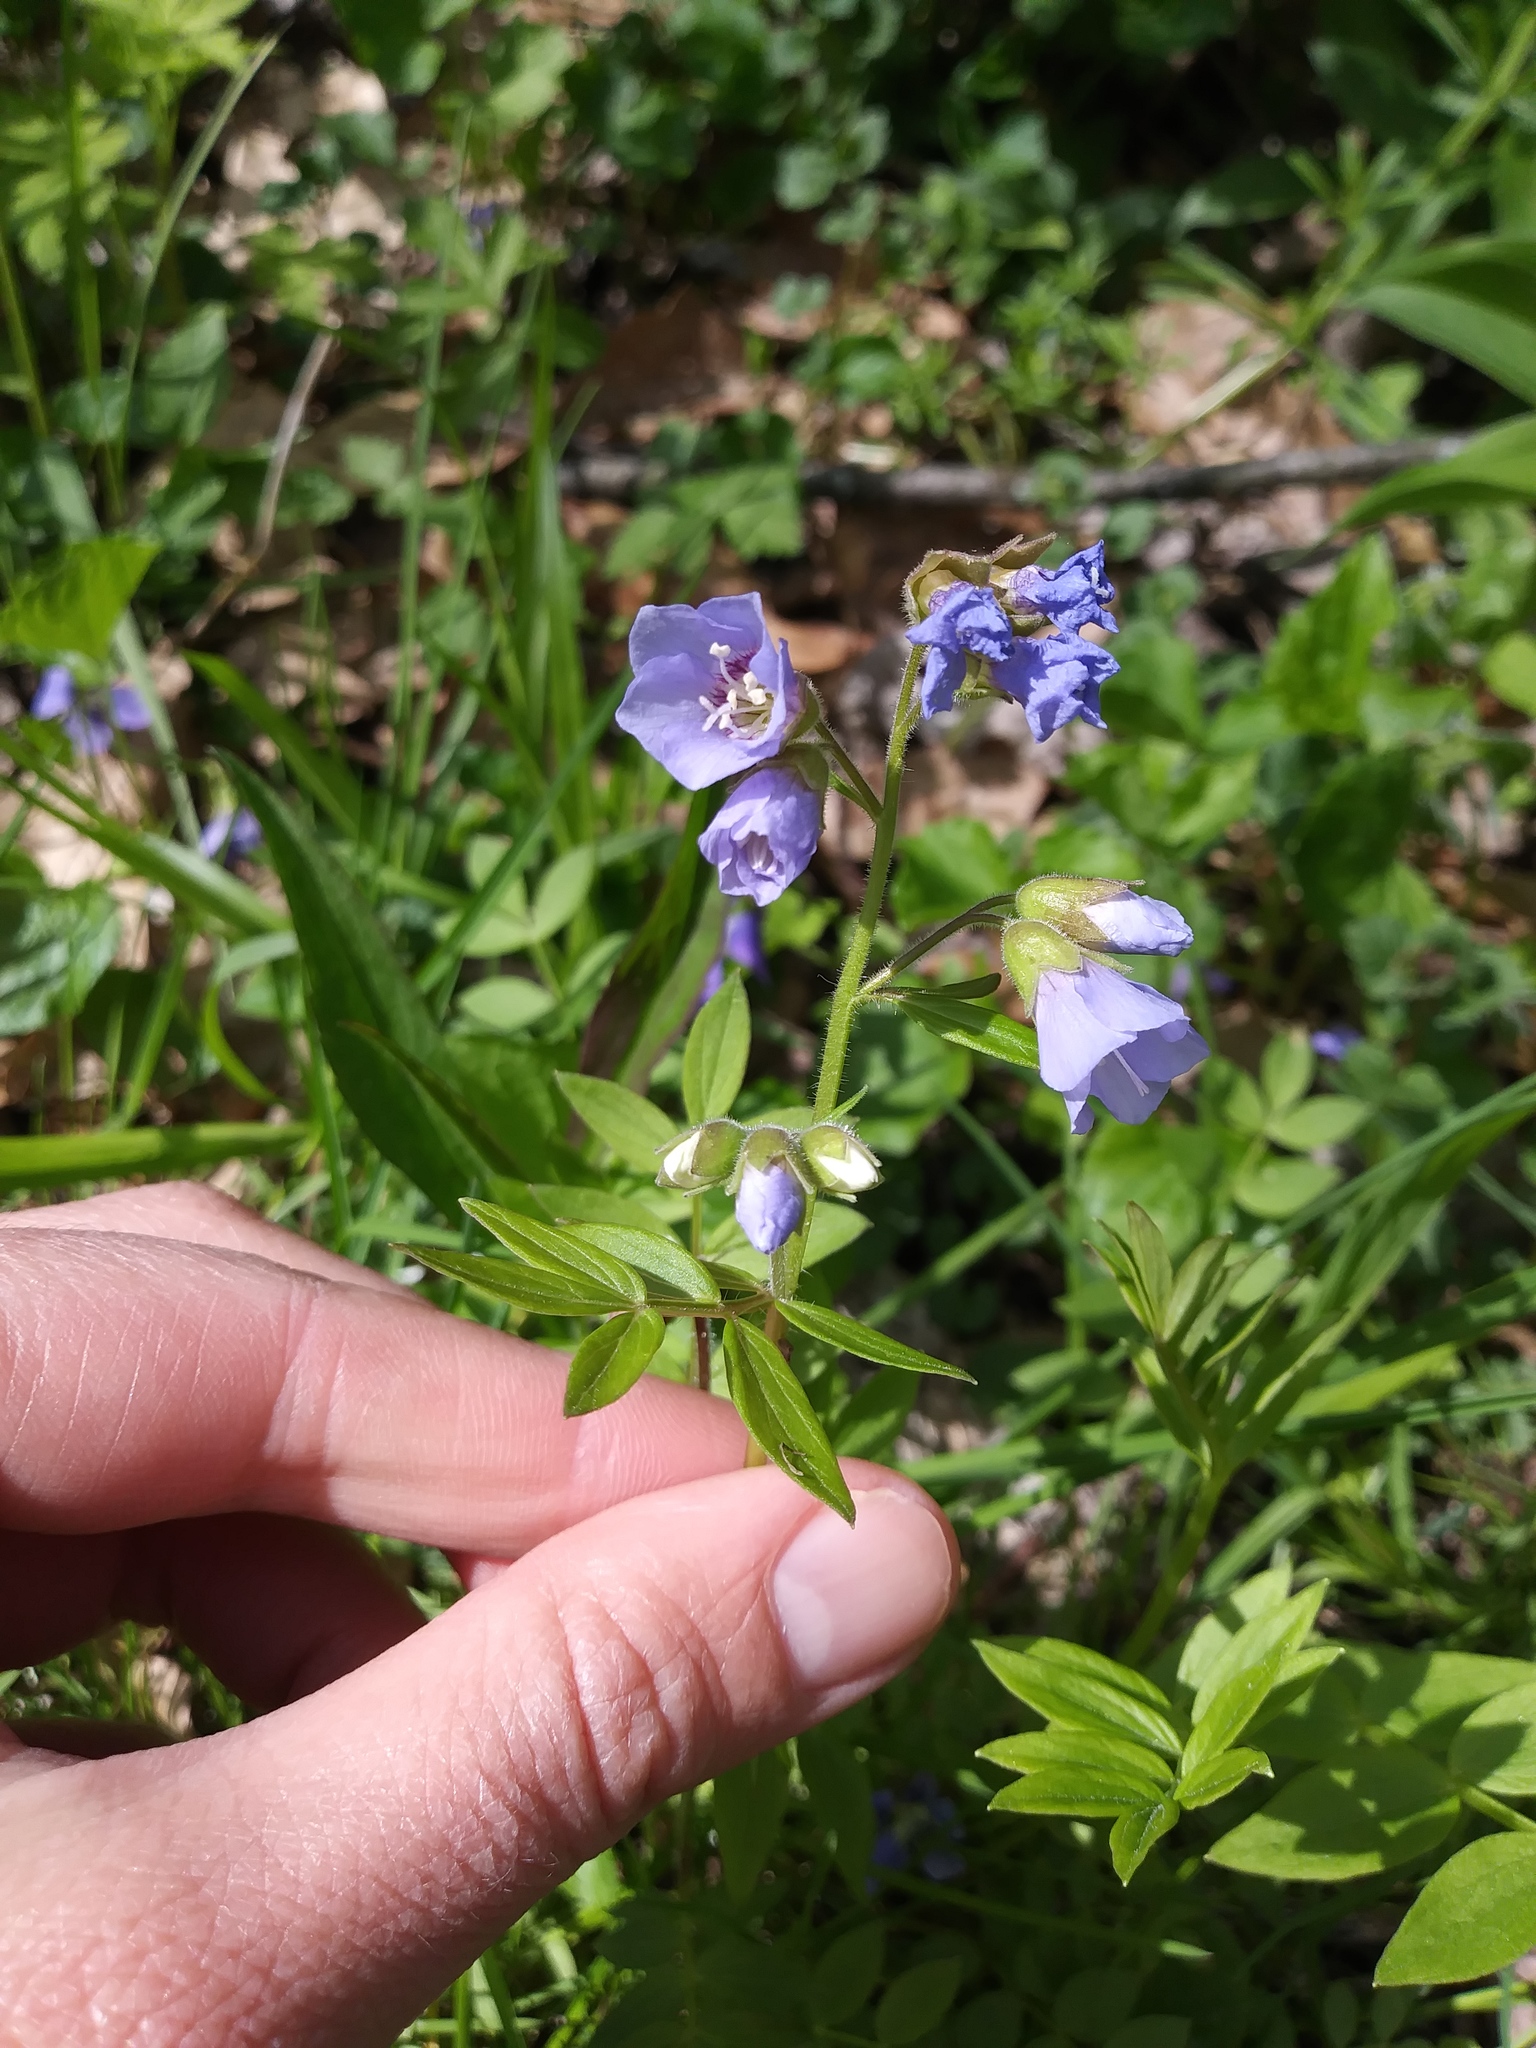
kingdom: Plantae
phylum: Tracheophyta
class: Magnoliopsida
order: Ericales
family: Polemoniaceae
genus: Polemonium
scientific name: Polemonium reptans
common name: Creeping jacob's-ladder
